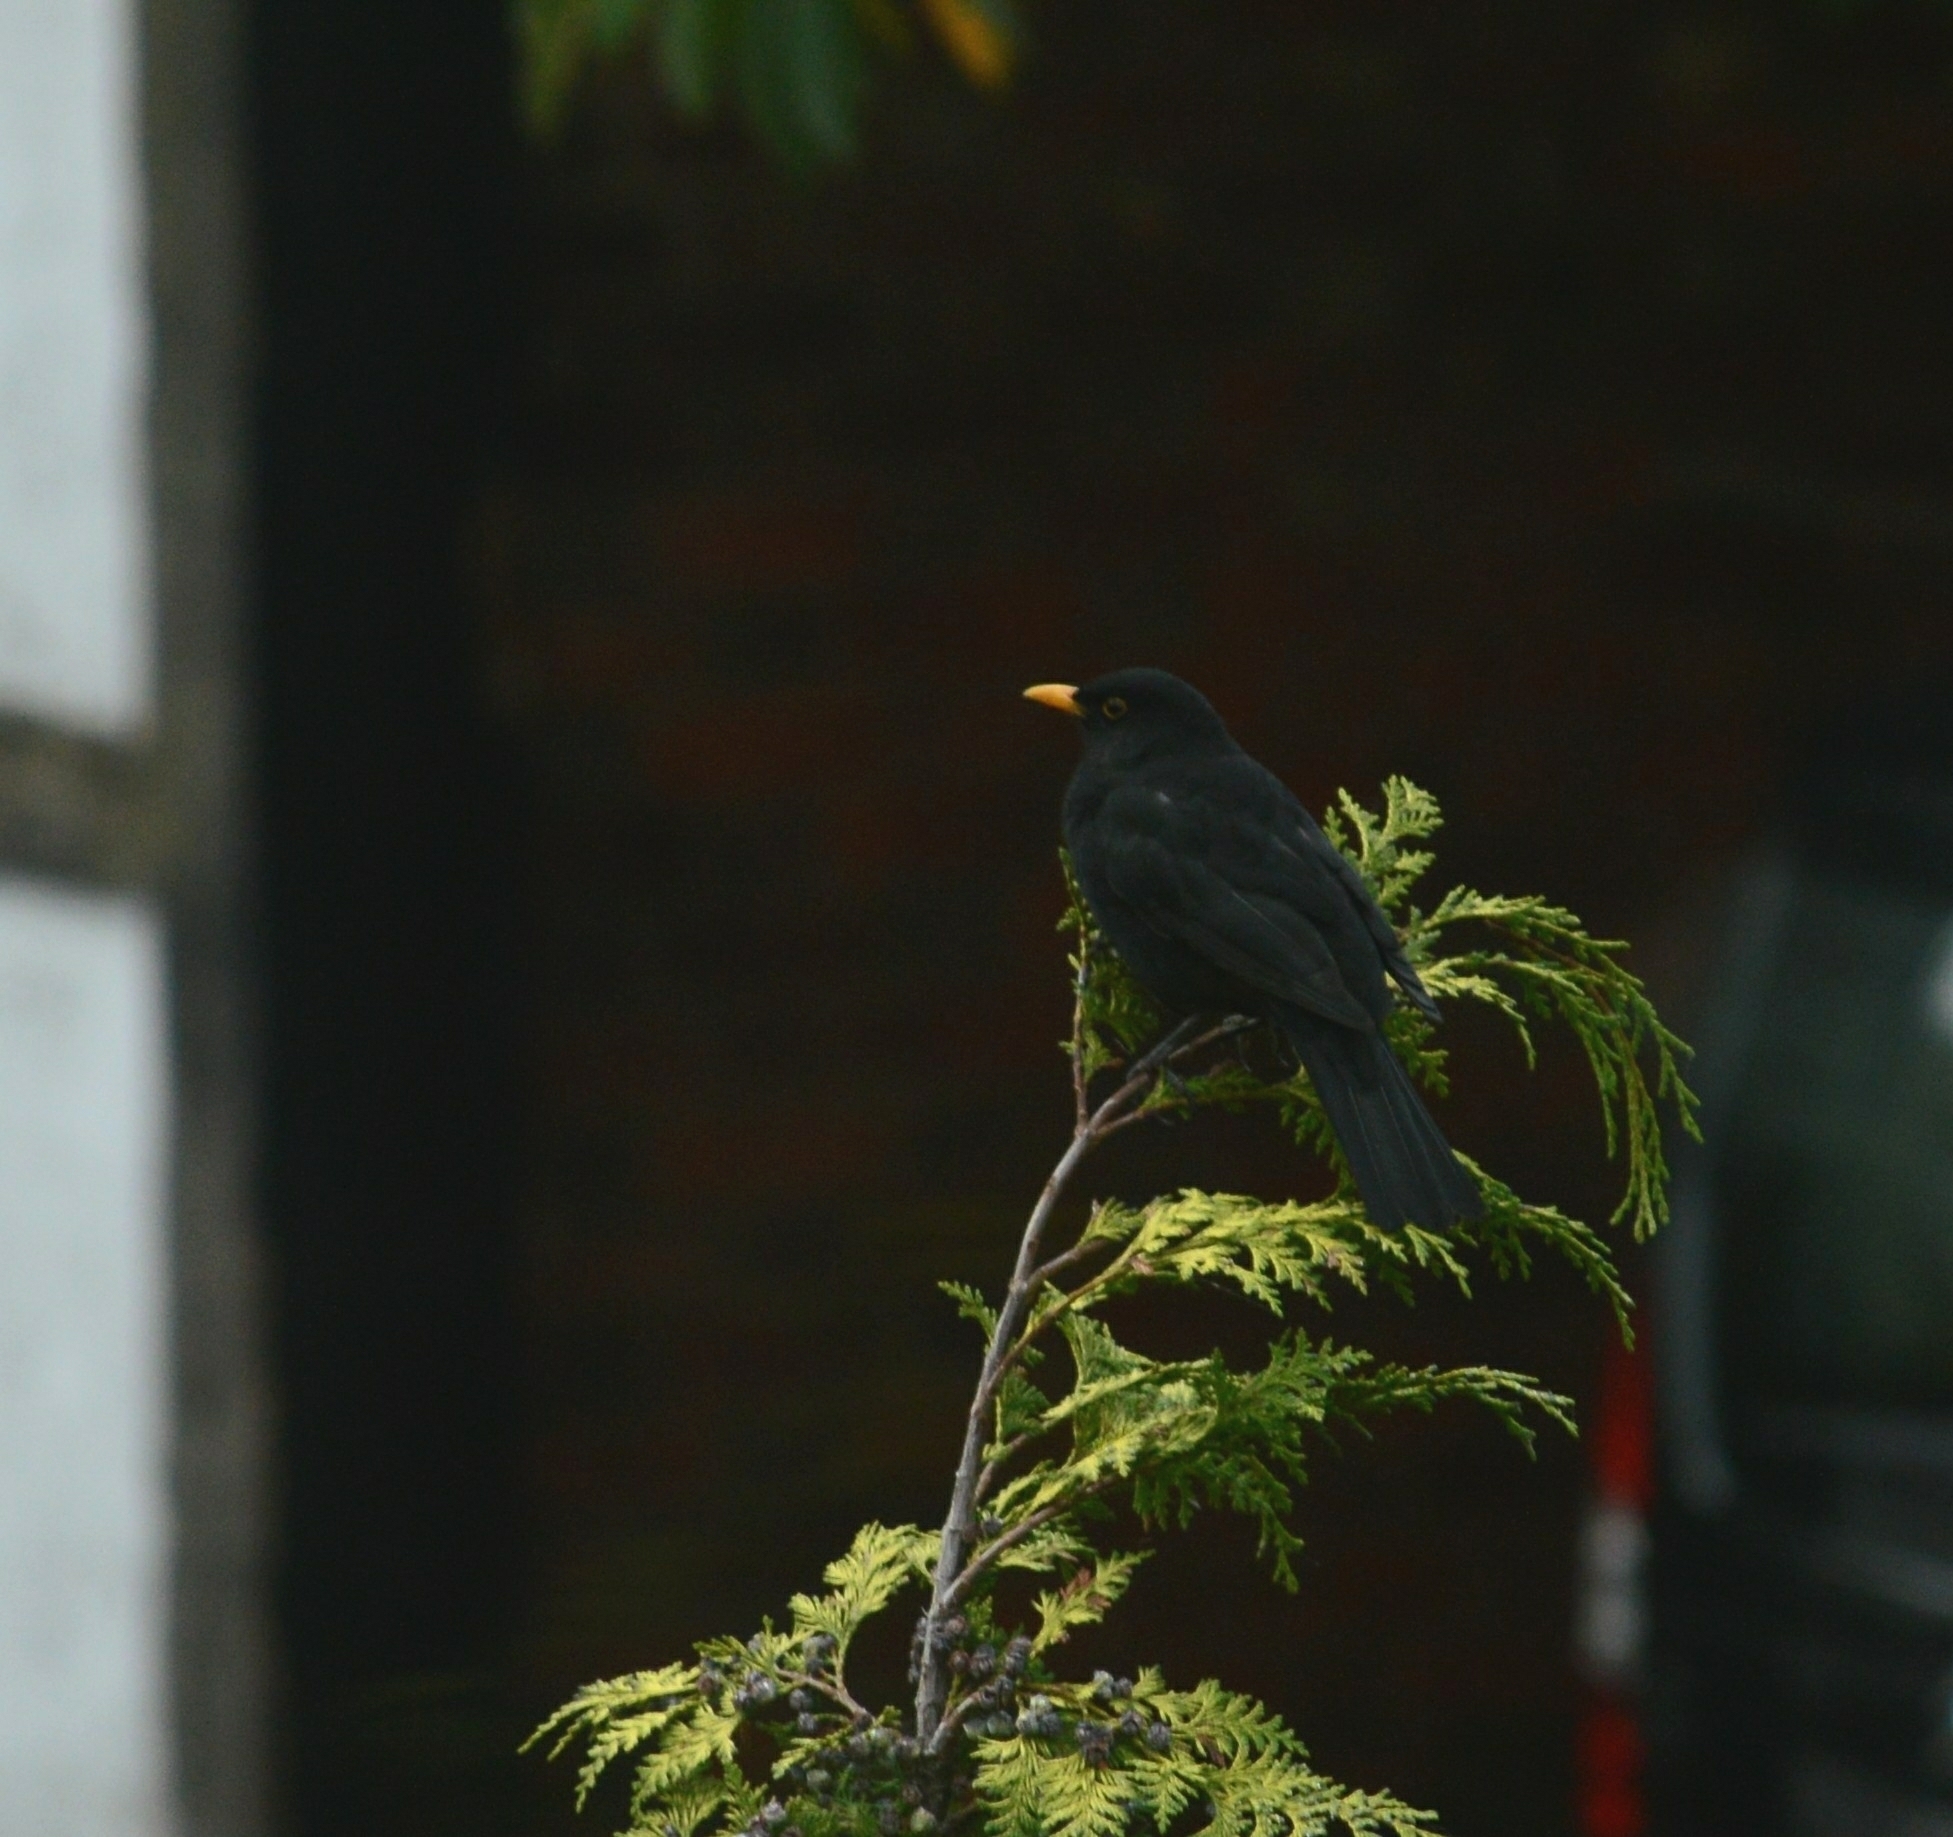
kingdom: Animalia
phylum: Chordata
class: Aves
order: Passeriformes
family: Turdidae
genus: Turdus
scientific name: Turdus merula
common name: Common blackbird
